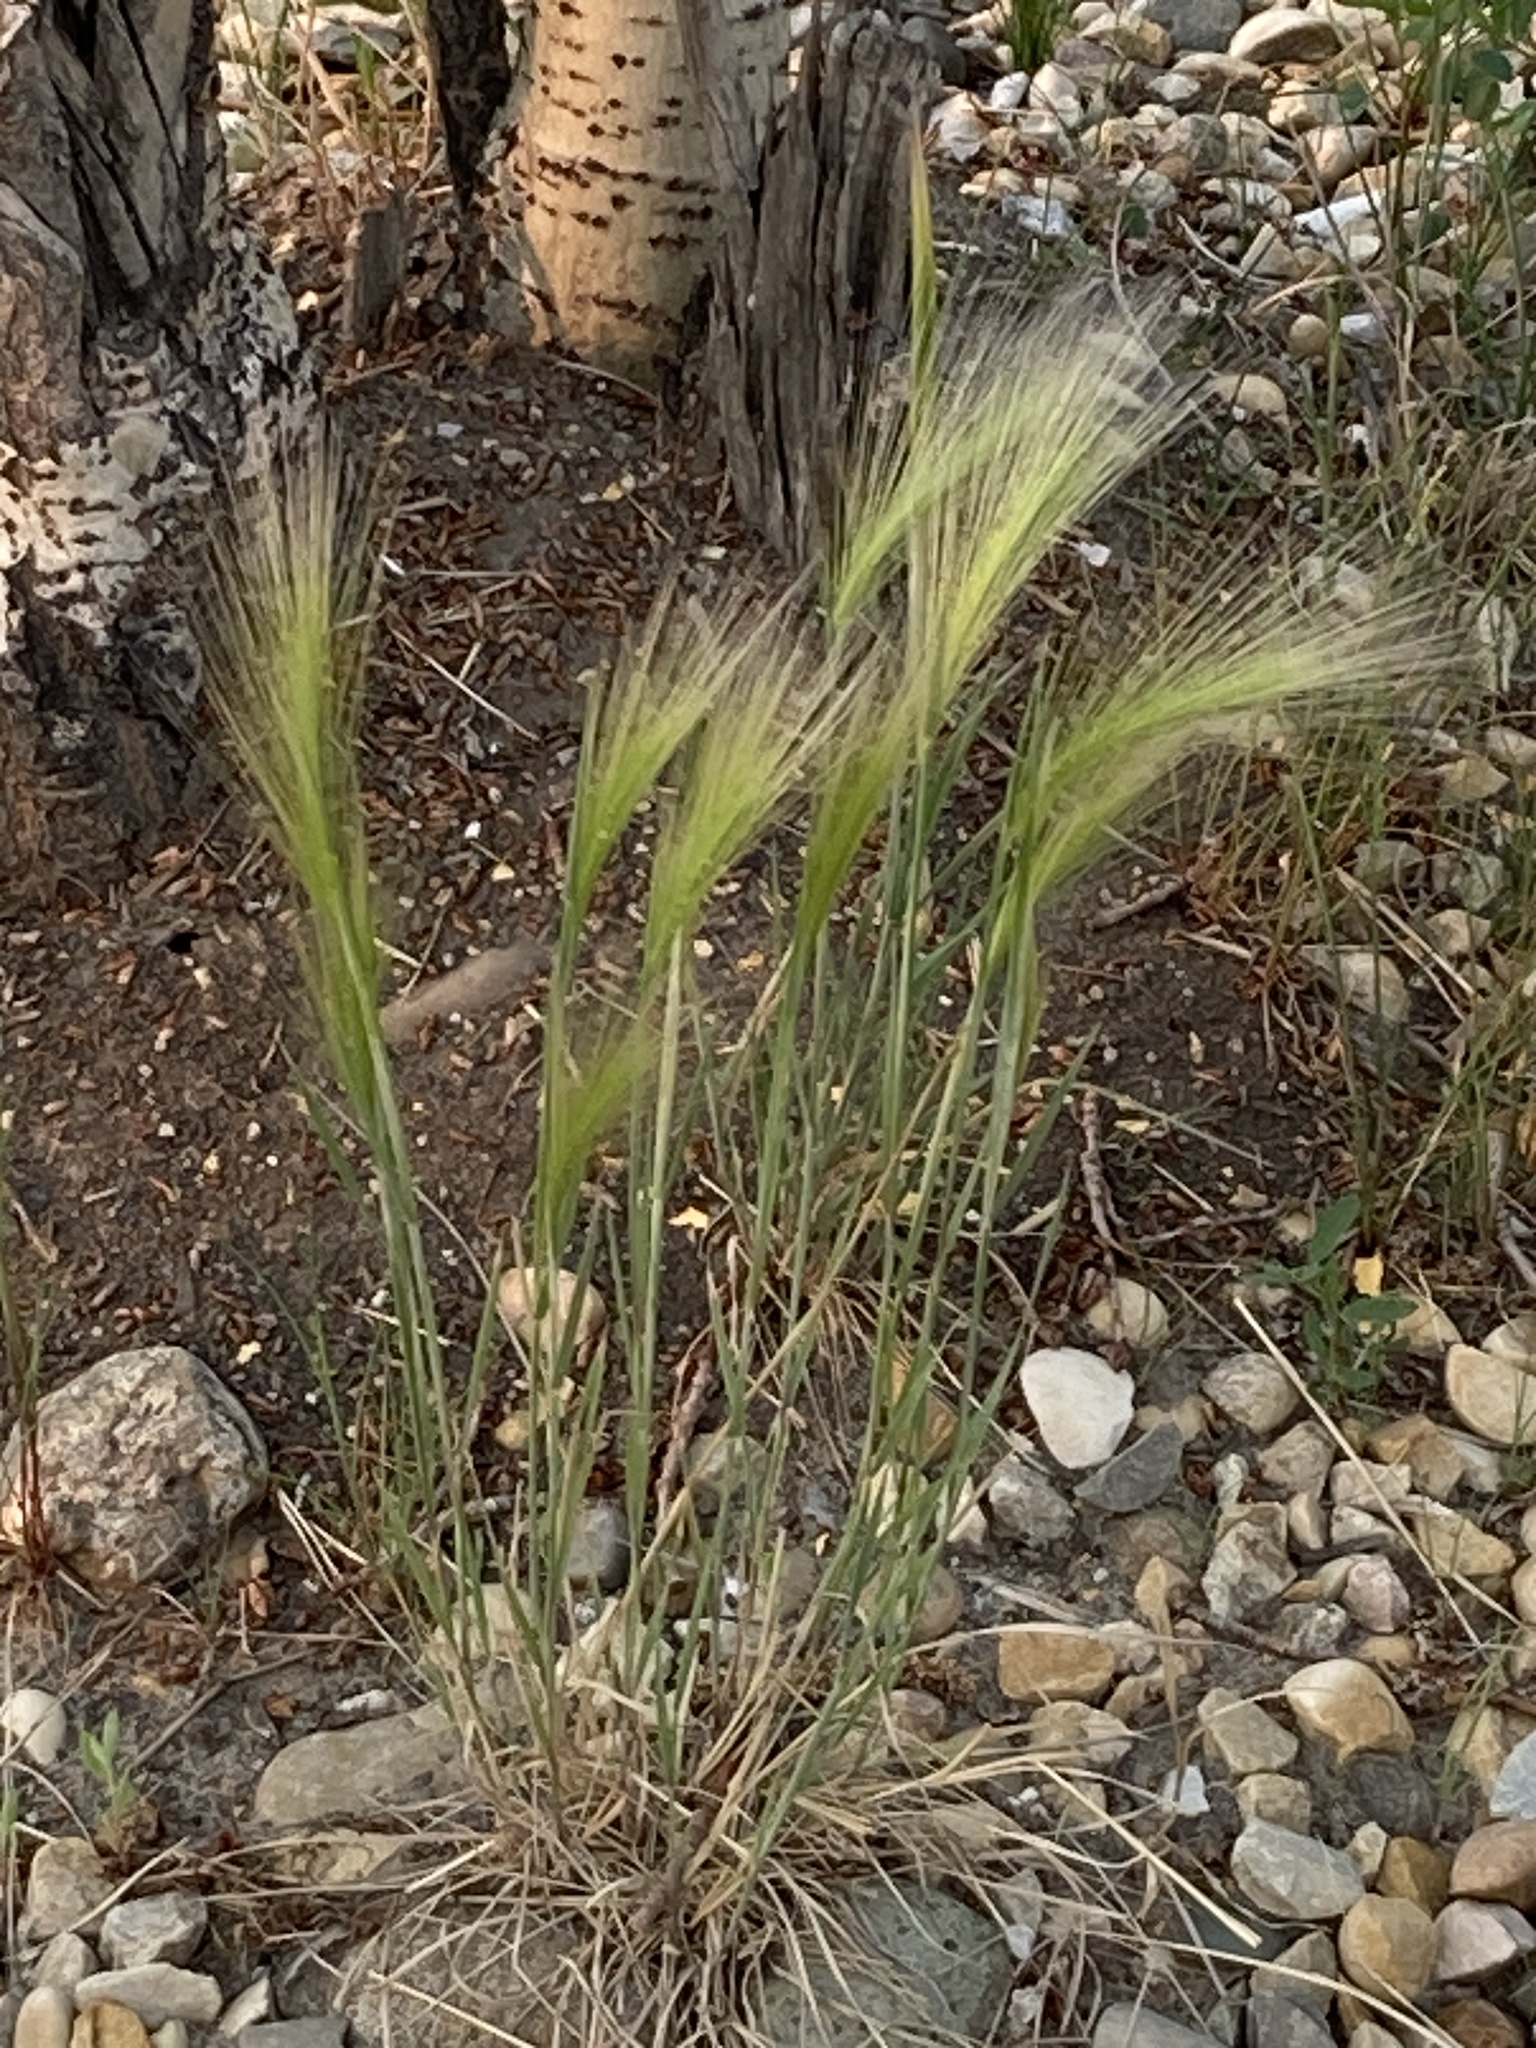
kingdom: Plantae
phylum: Tracheophyta
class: Liliopsida
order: Poales
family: Poaceae
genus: Hordeum
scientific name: Hordeum jubatum
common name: Foxtail barley
